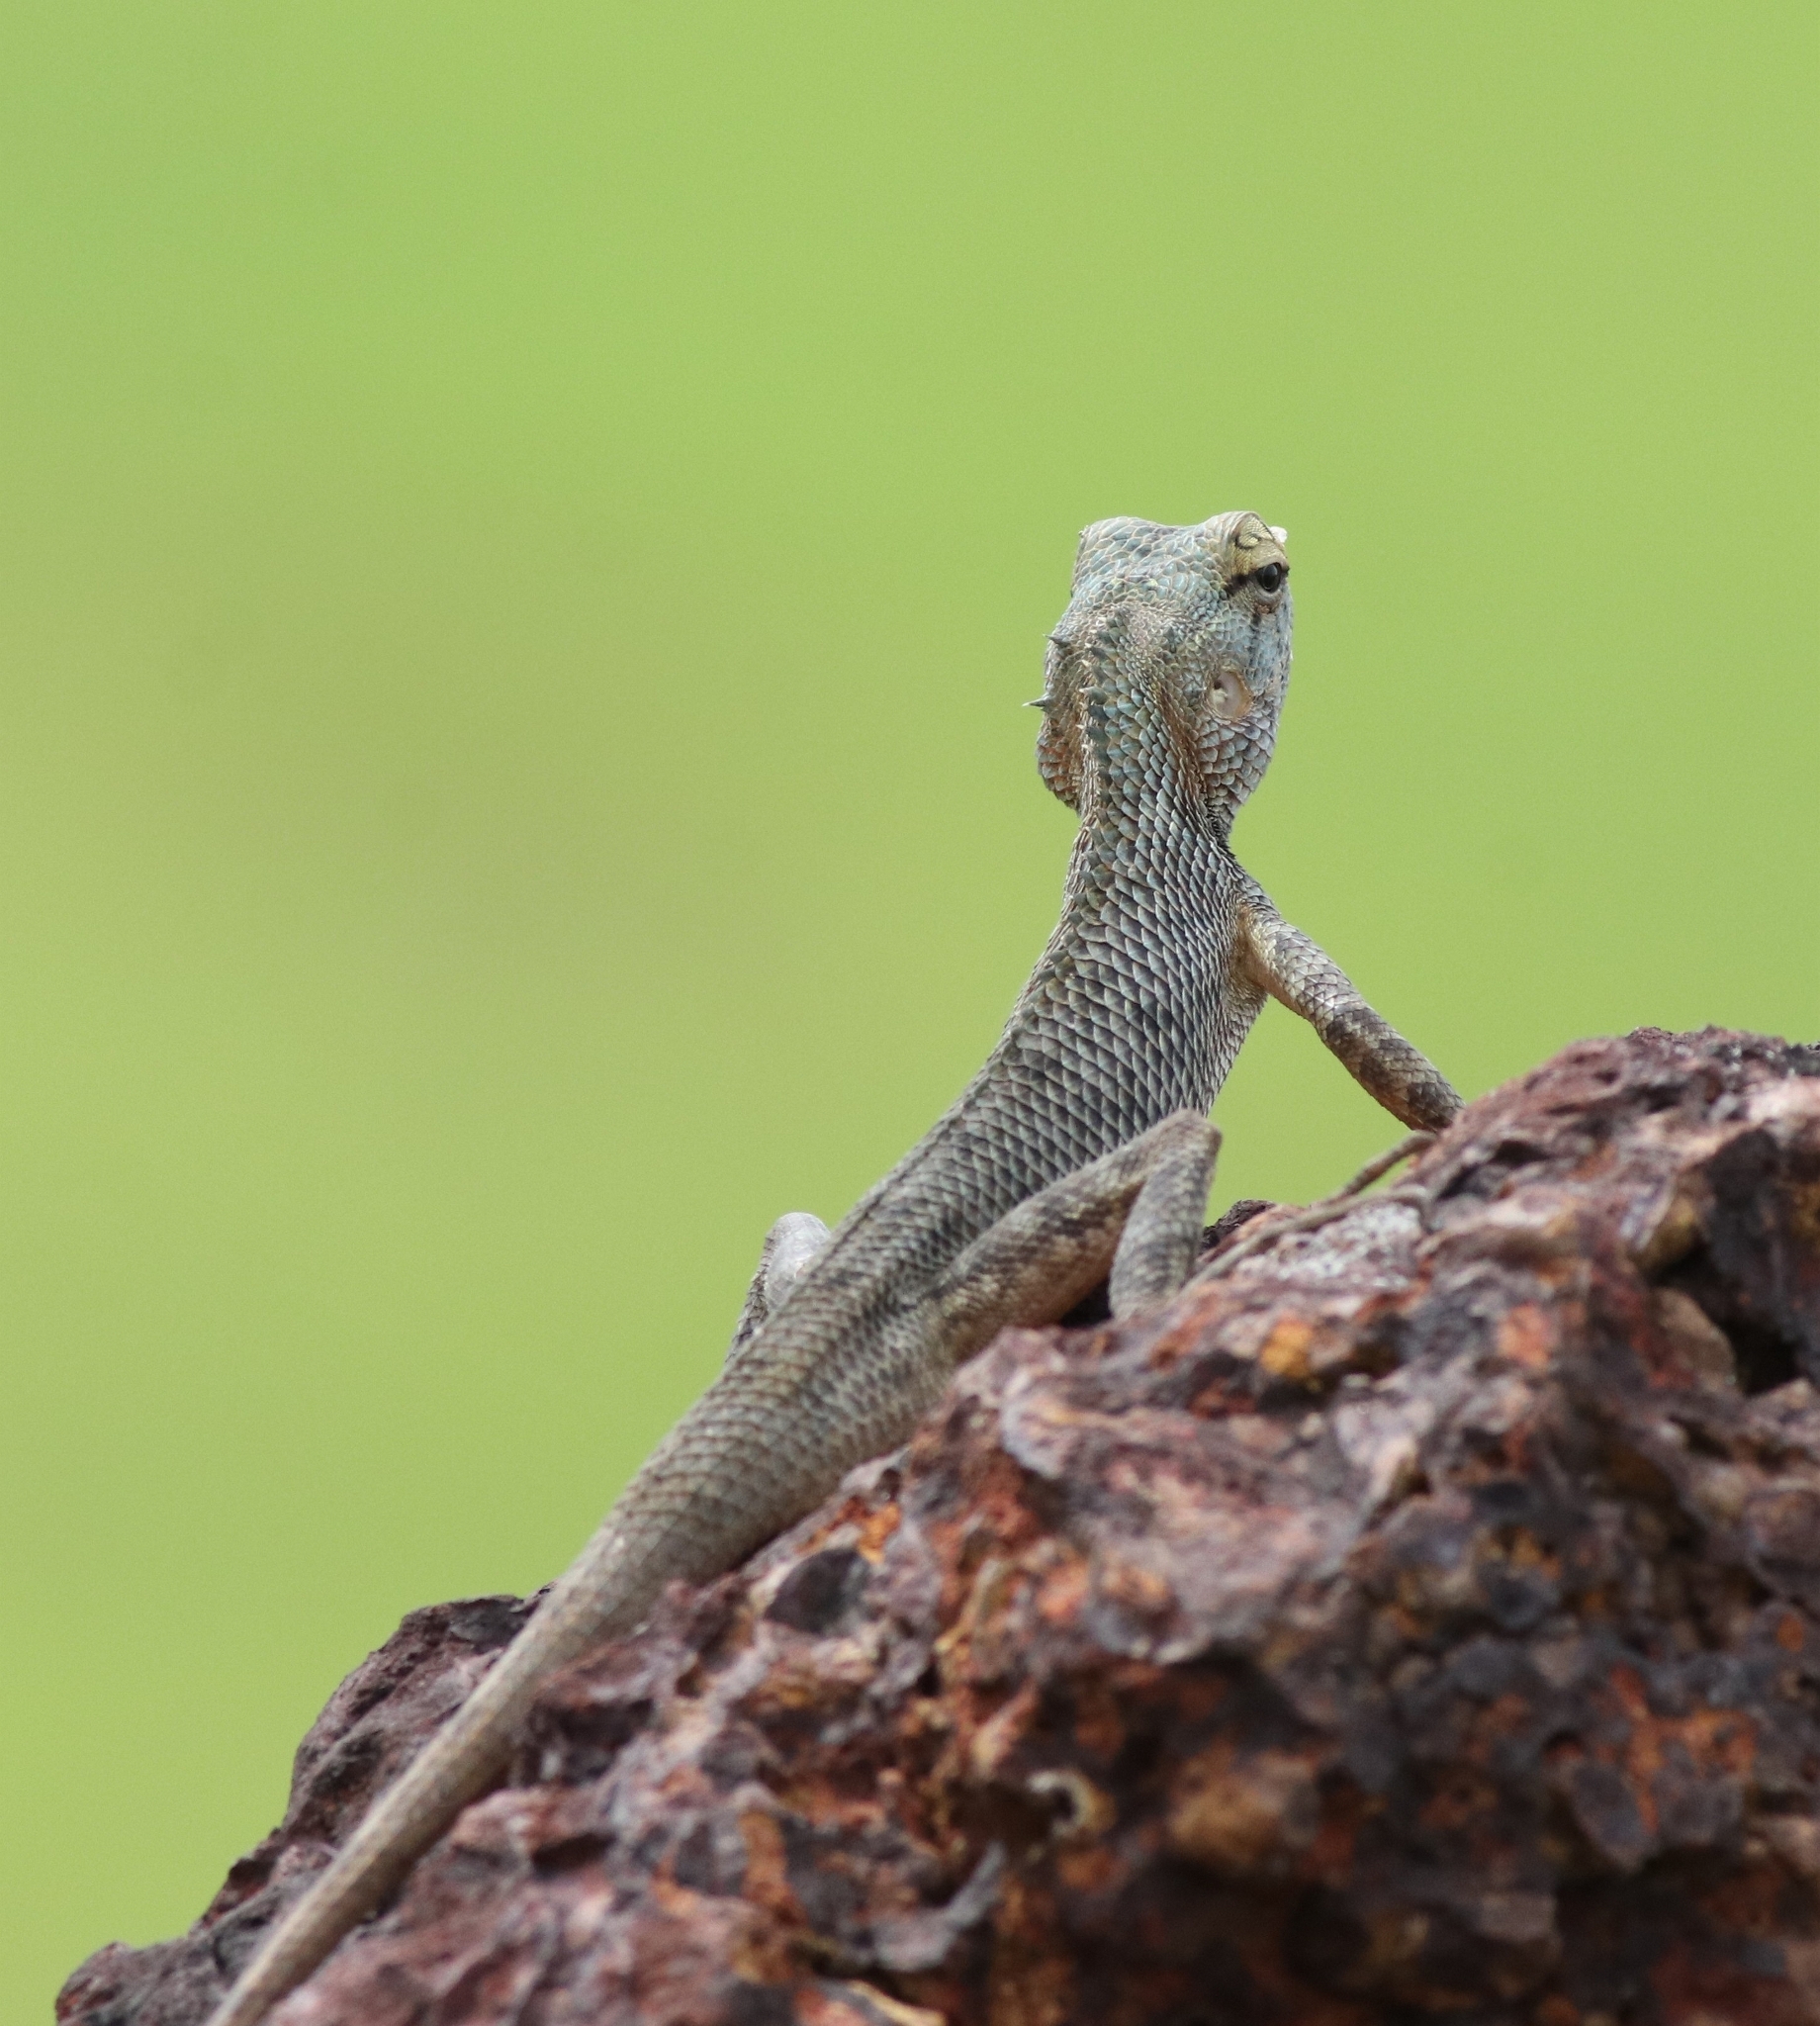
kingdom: Animalia
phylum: Chordata
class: Squamata
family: Agamidae
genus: Calotes
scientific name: Calotes versicolor
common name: Oriental garden lizard
